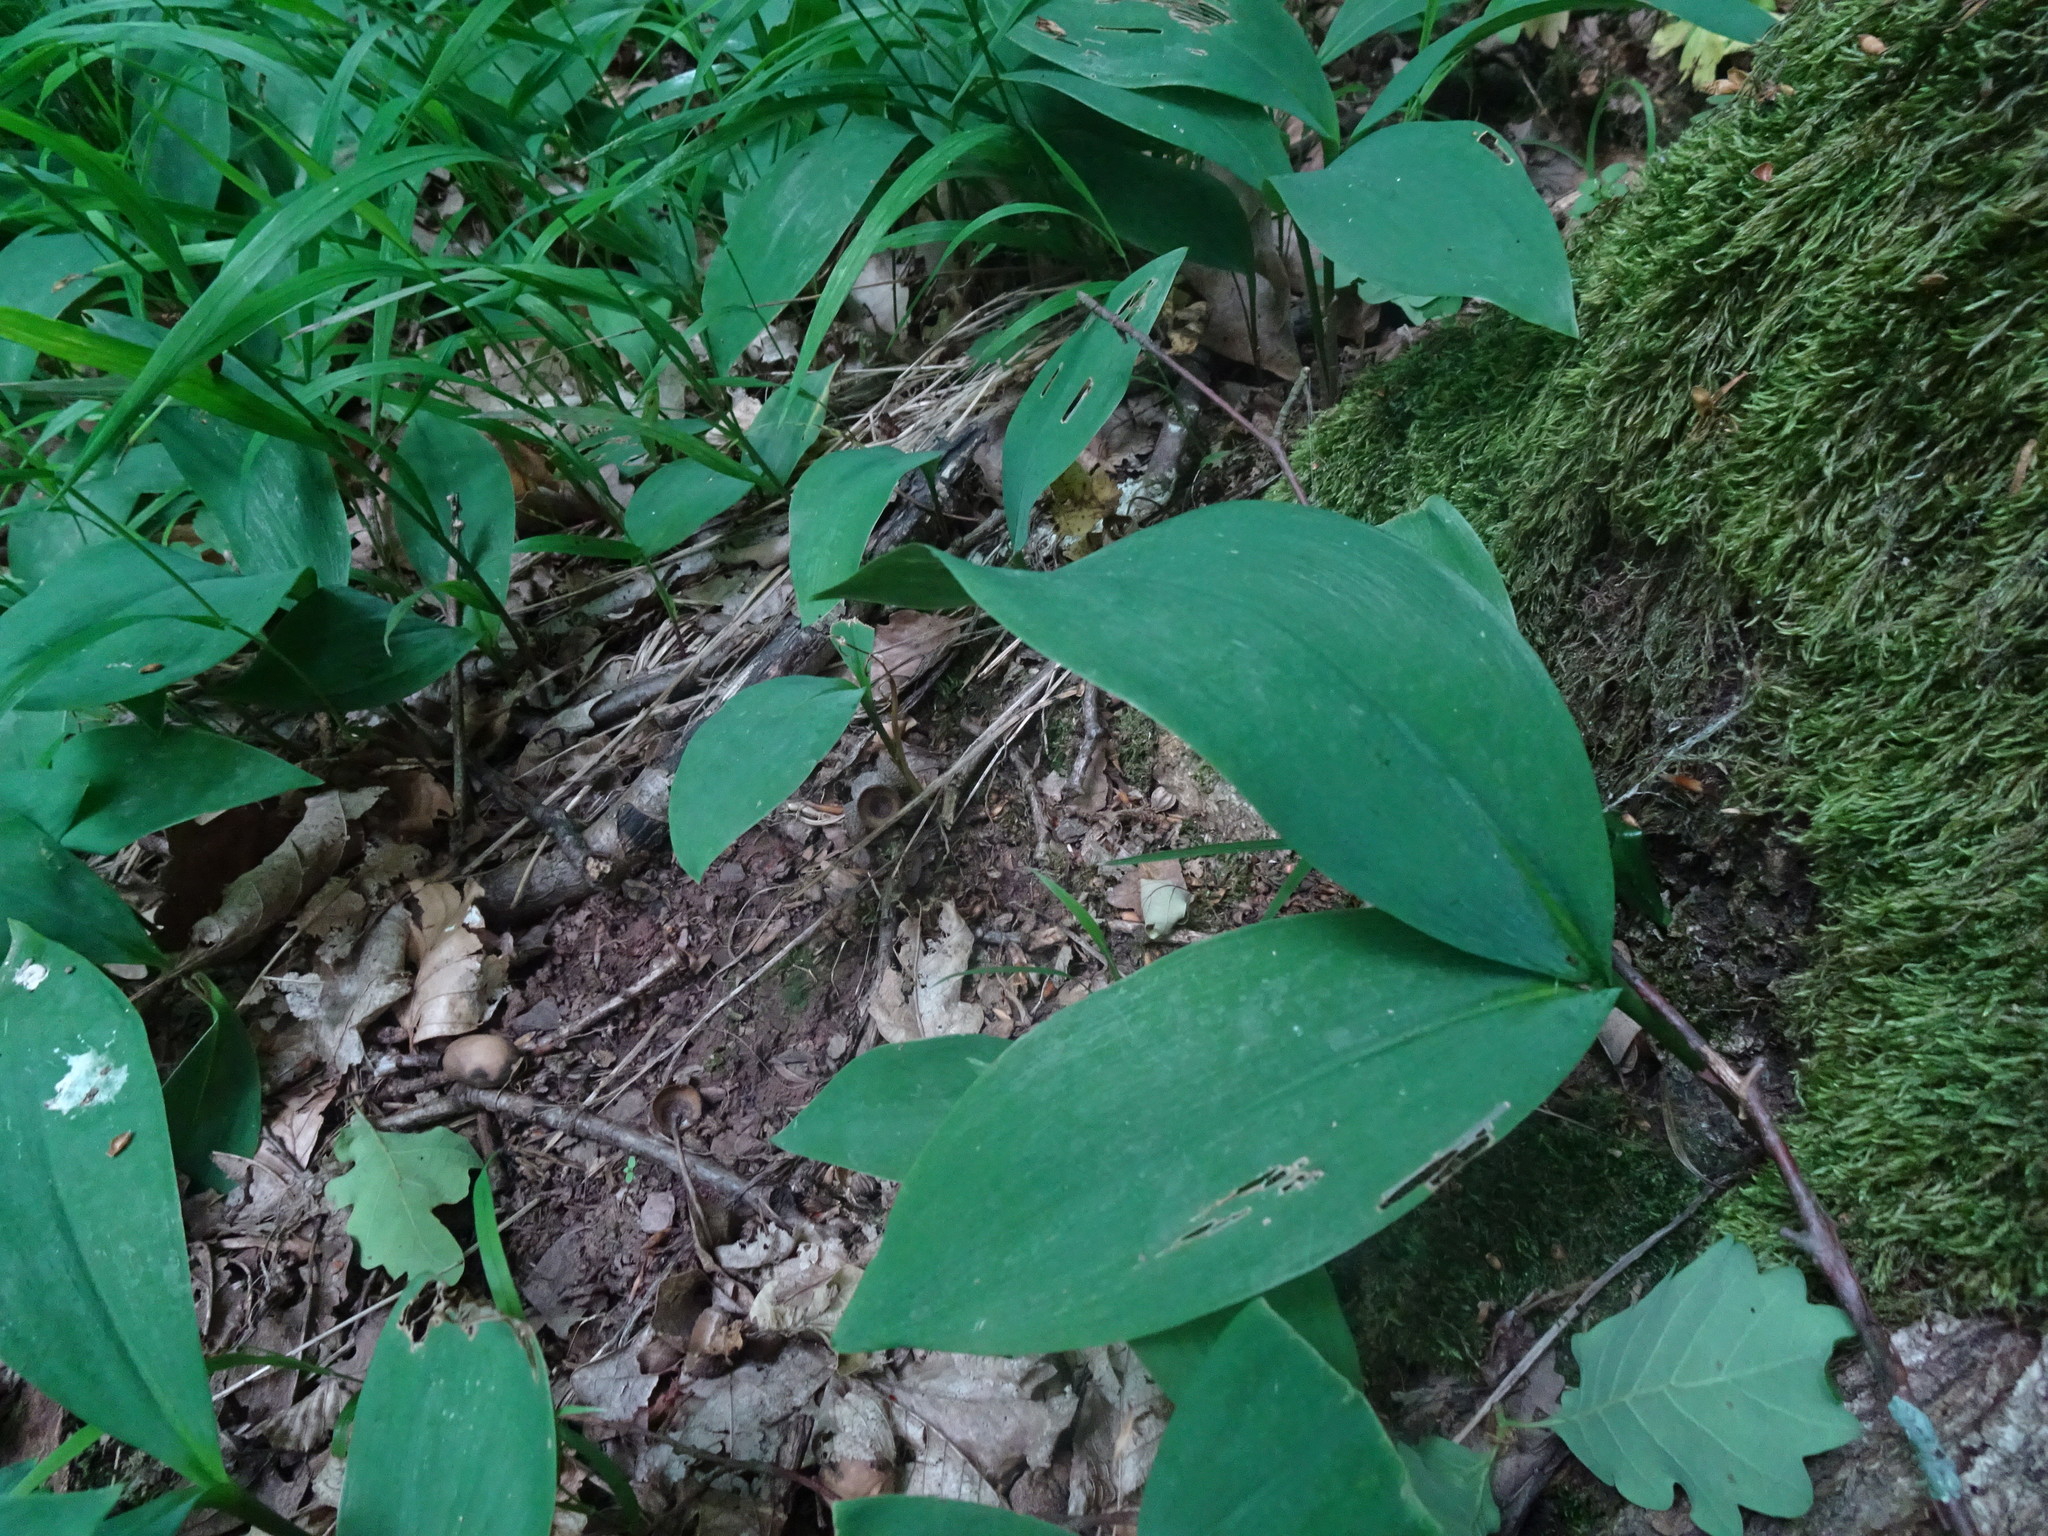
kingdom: Plantae
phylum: Tracheophyta
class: Liliopsida
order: Asparagales
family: Asparagaceae
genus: Convallaria
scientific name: Convallaria majalis
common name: Lily-of-the-valley
